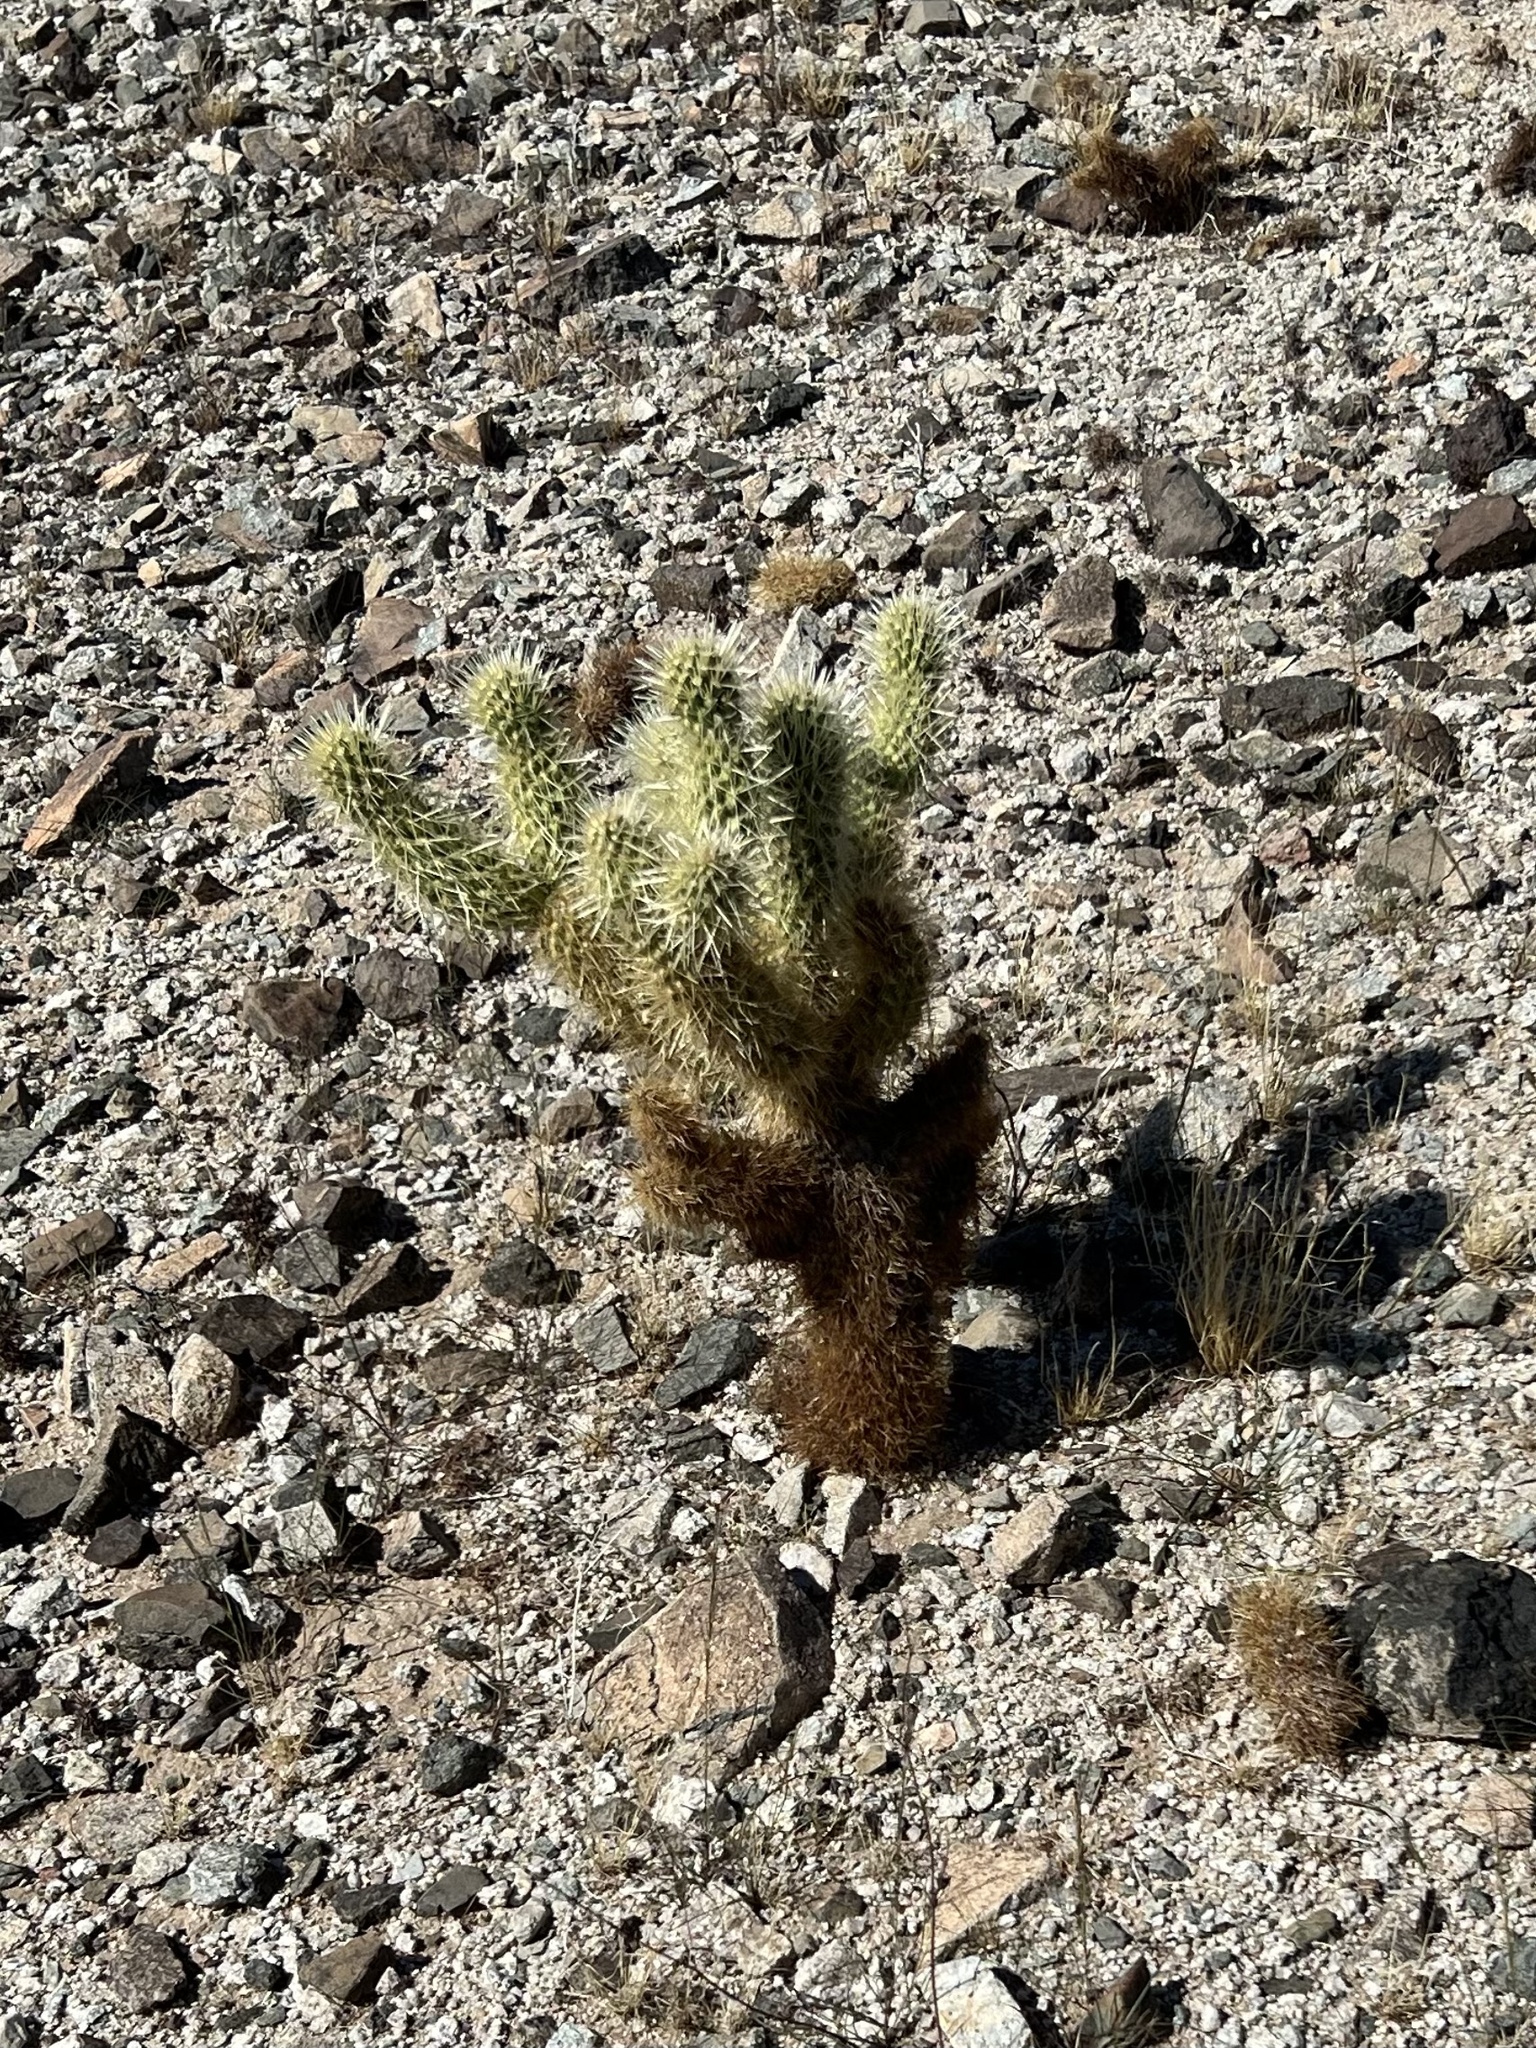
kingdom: Plantae
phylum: Tracheophyta
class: Magnoliopsida
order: Caryophyllales
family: Cactaceae
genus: Cylindropuntia
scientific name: Cylindropuntia fosbergii
